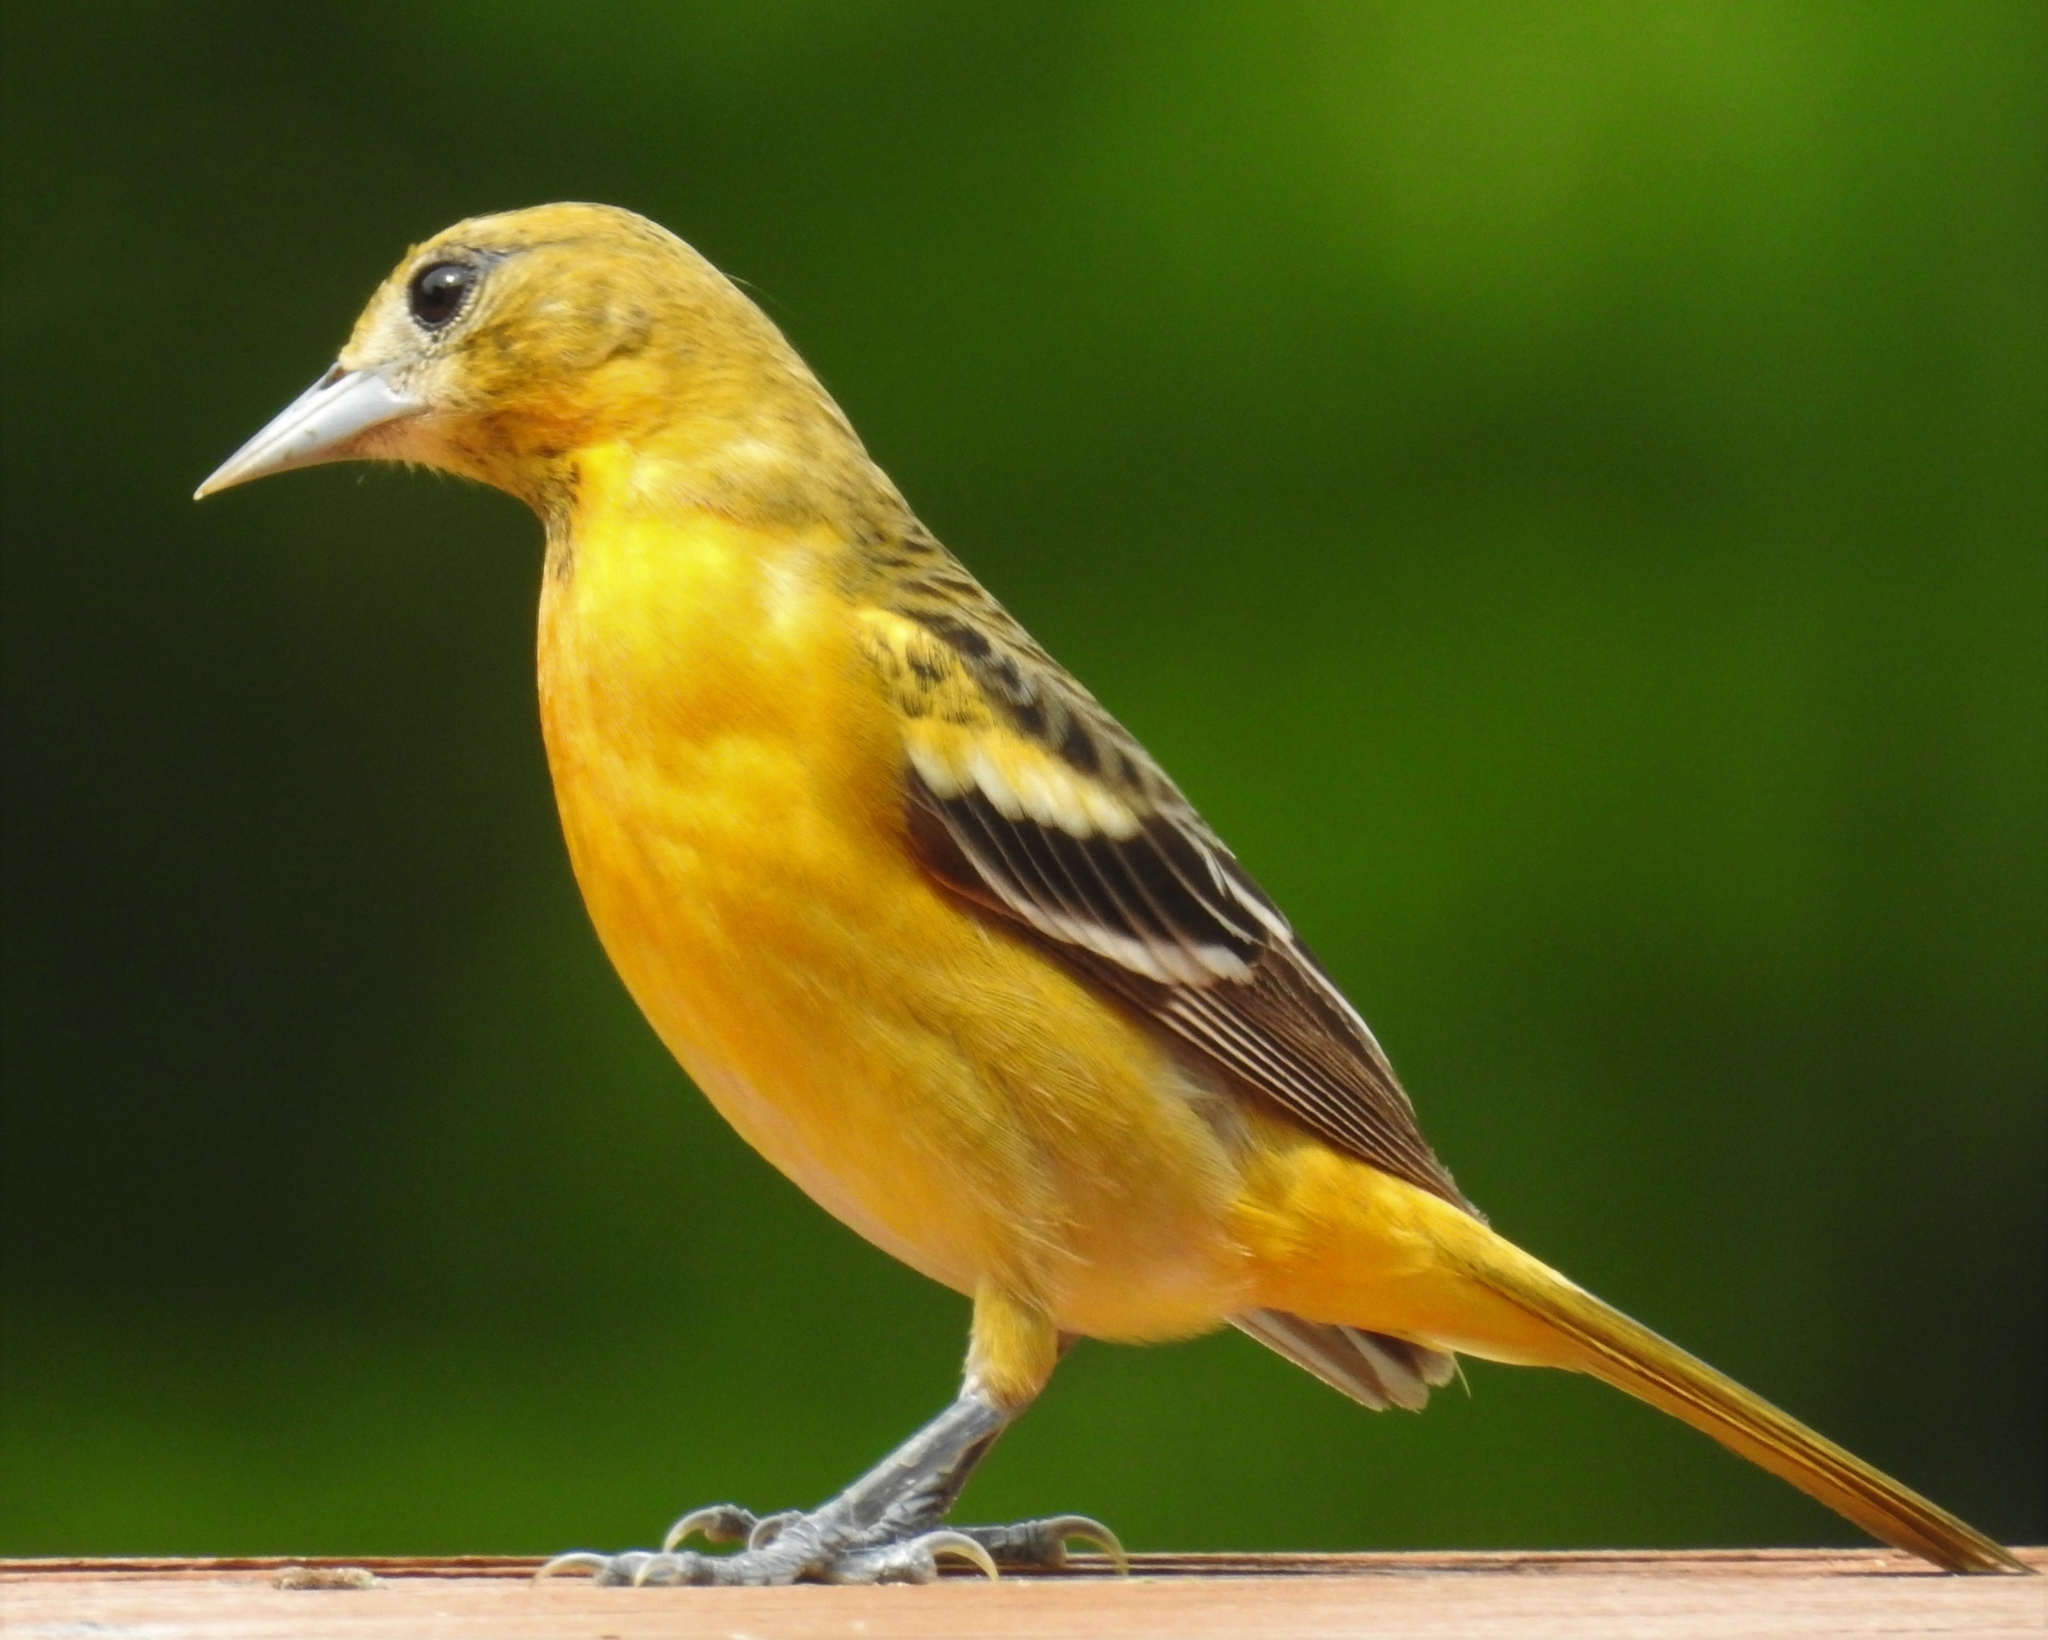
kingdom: Animalia
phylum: Chordata
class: Aves
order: Passeriformes
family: Icteridae
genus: Icterus
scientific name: Icterus galbula
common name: Baltimore oriole
